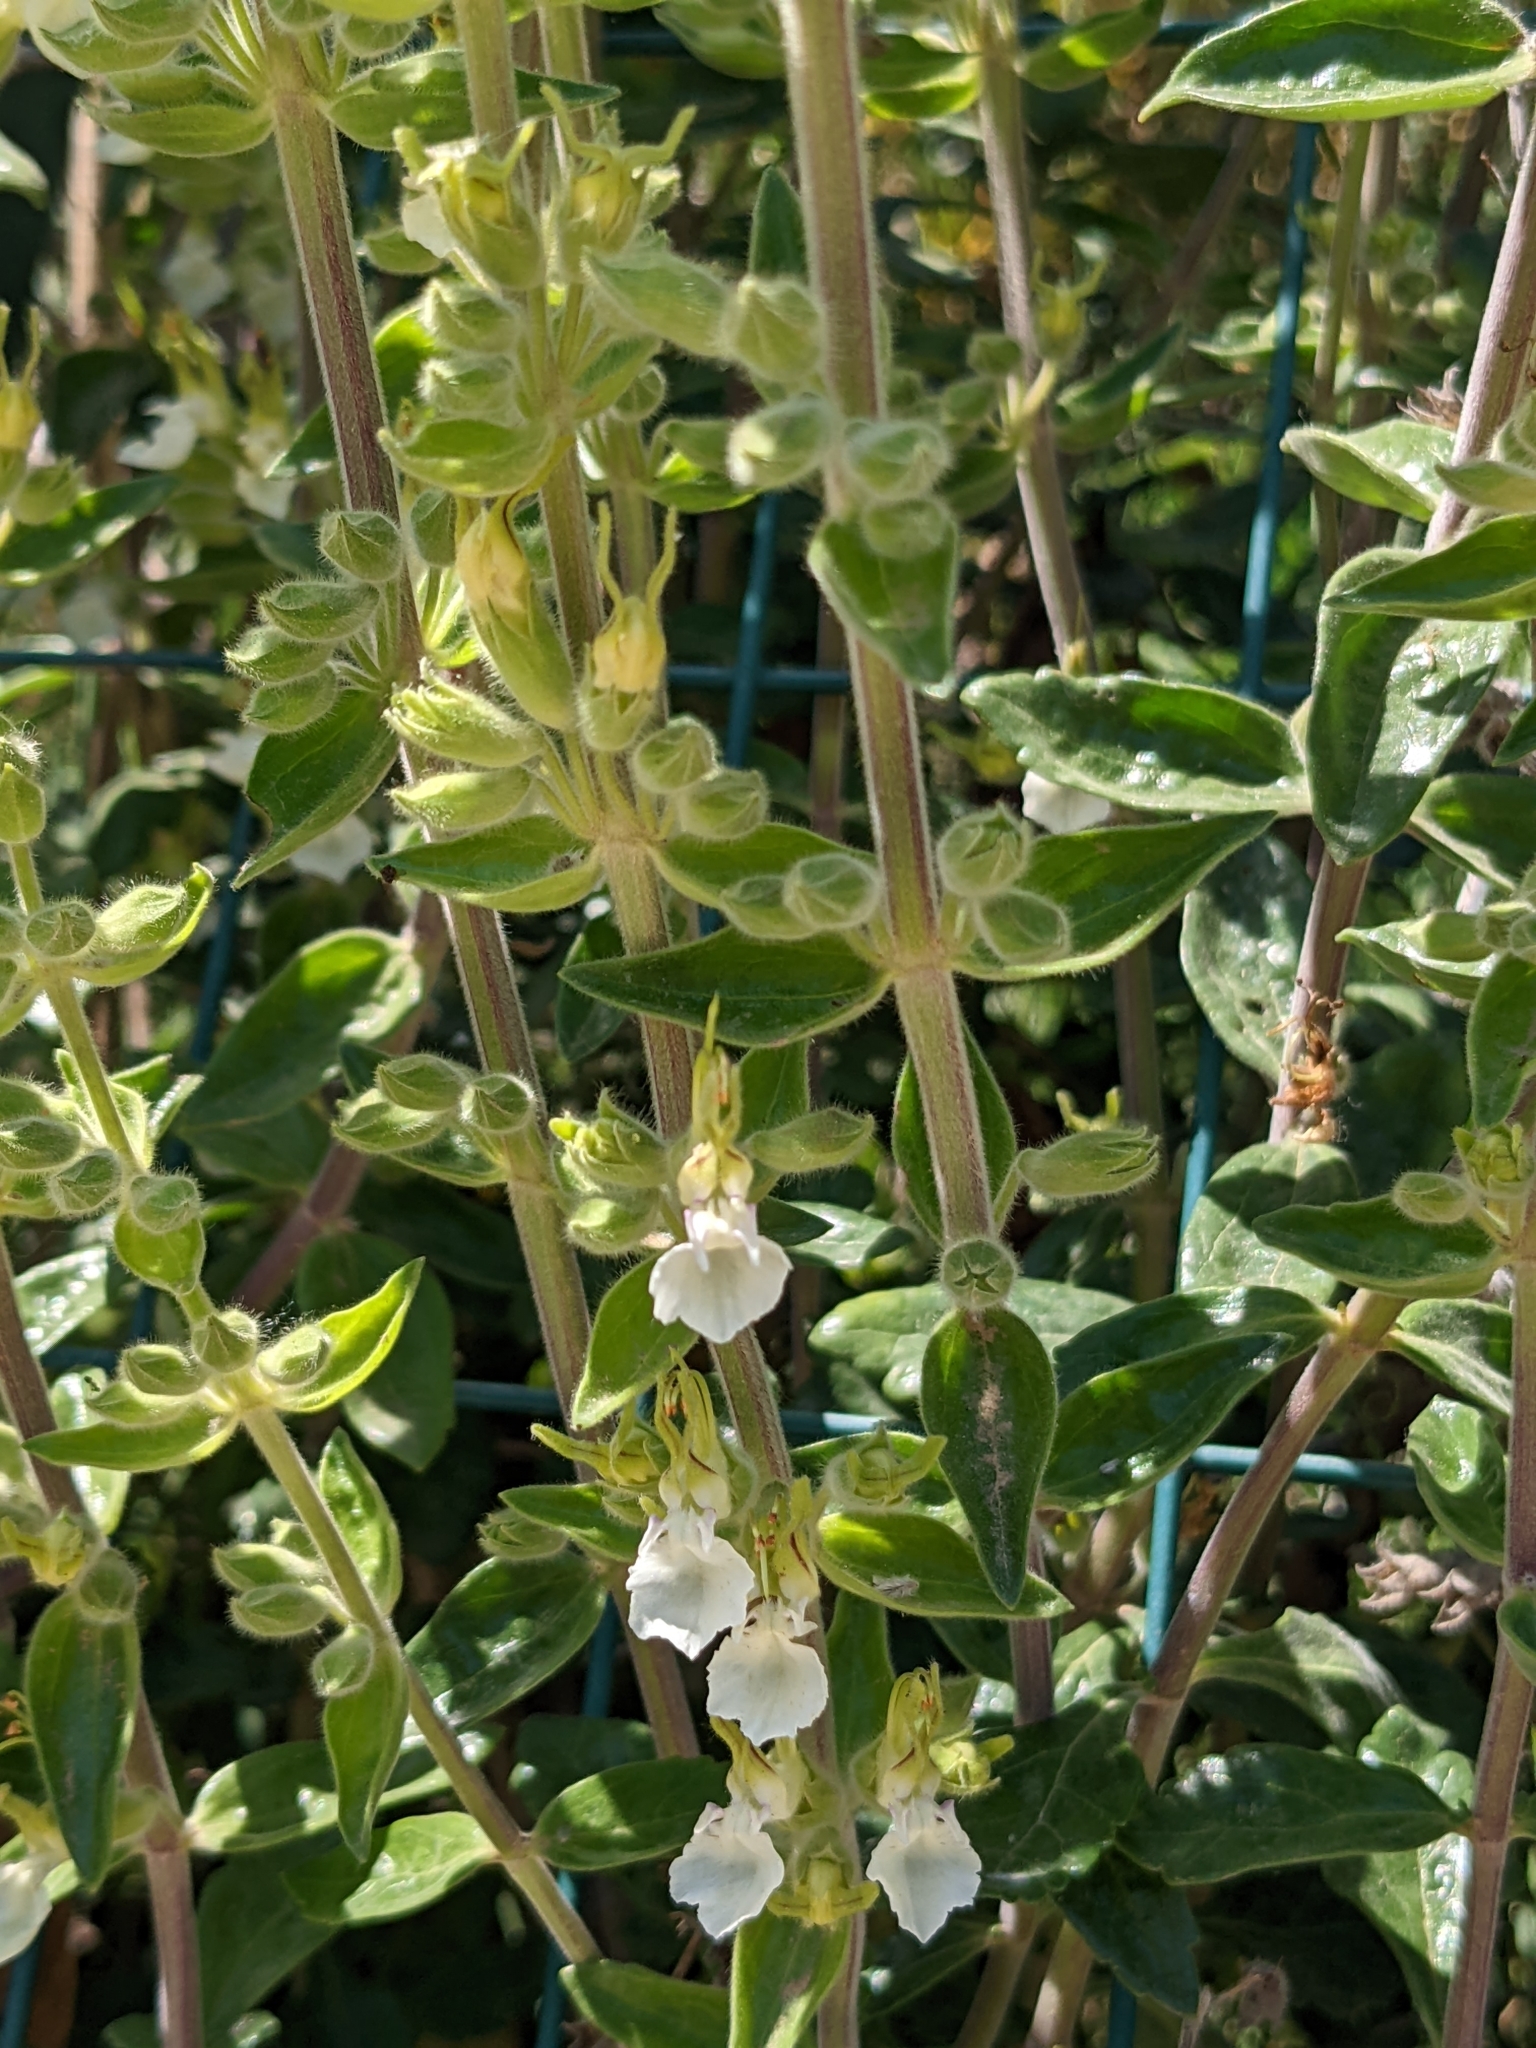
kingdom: Plantae
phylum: Tracheophyta
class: Magnoliopsida
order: Lamiales
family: Lamiaceae
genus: Teucrium
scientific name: Teucrium flavum
